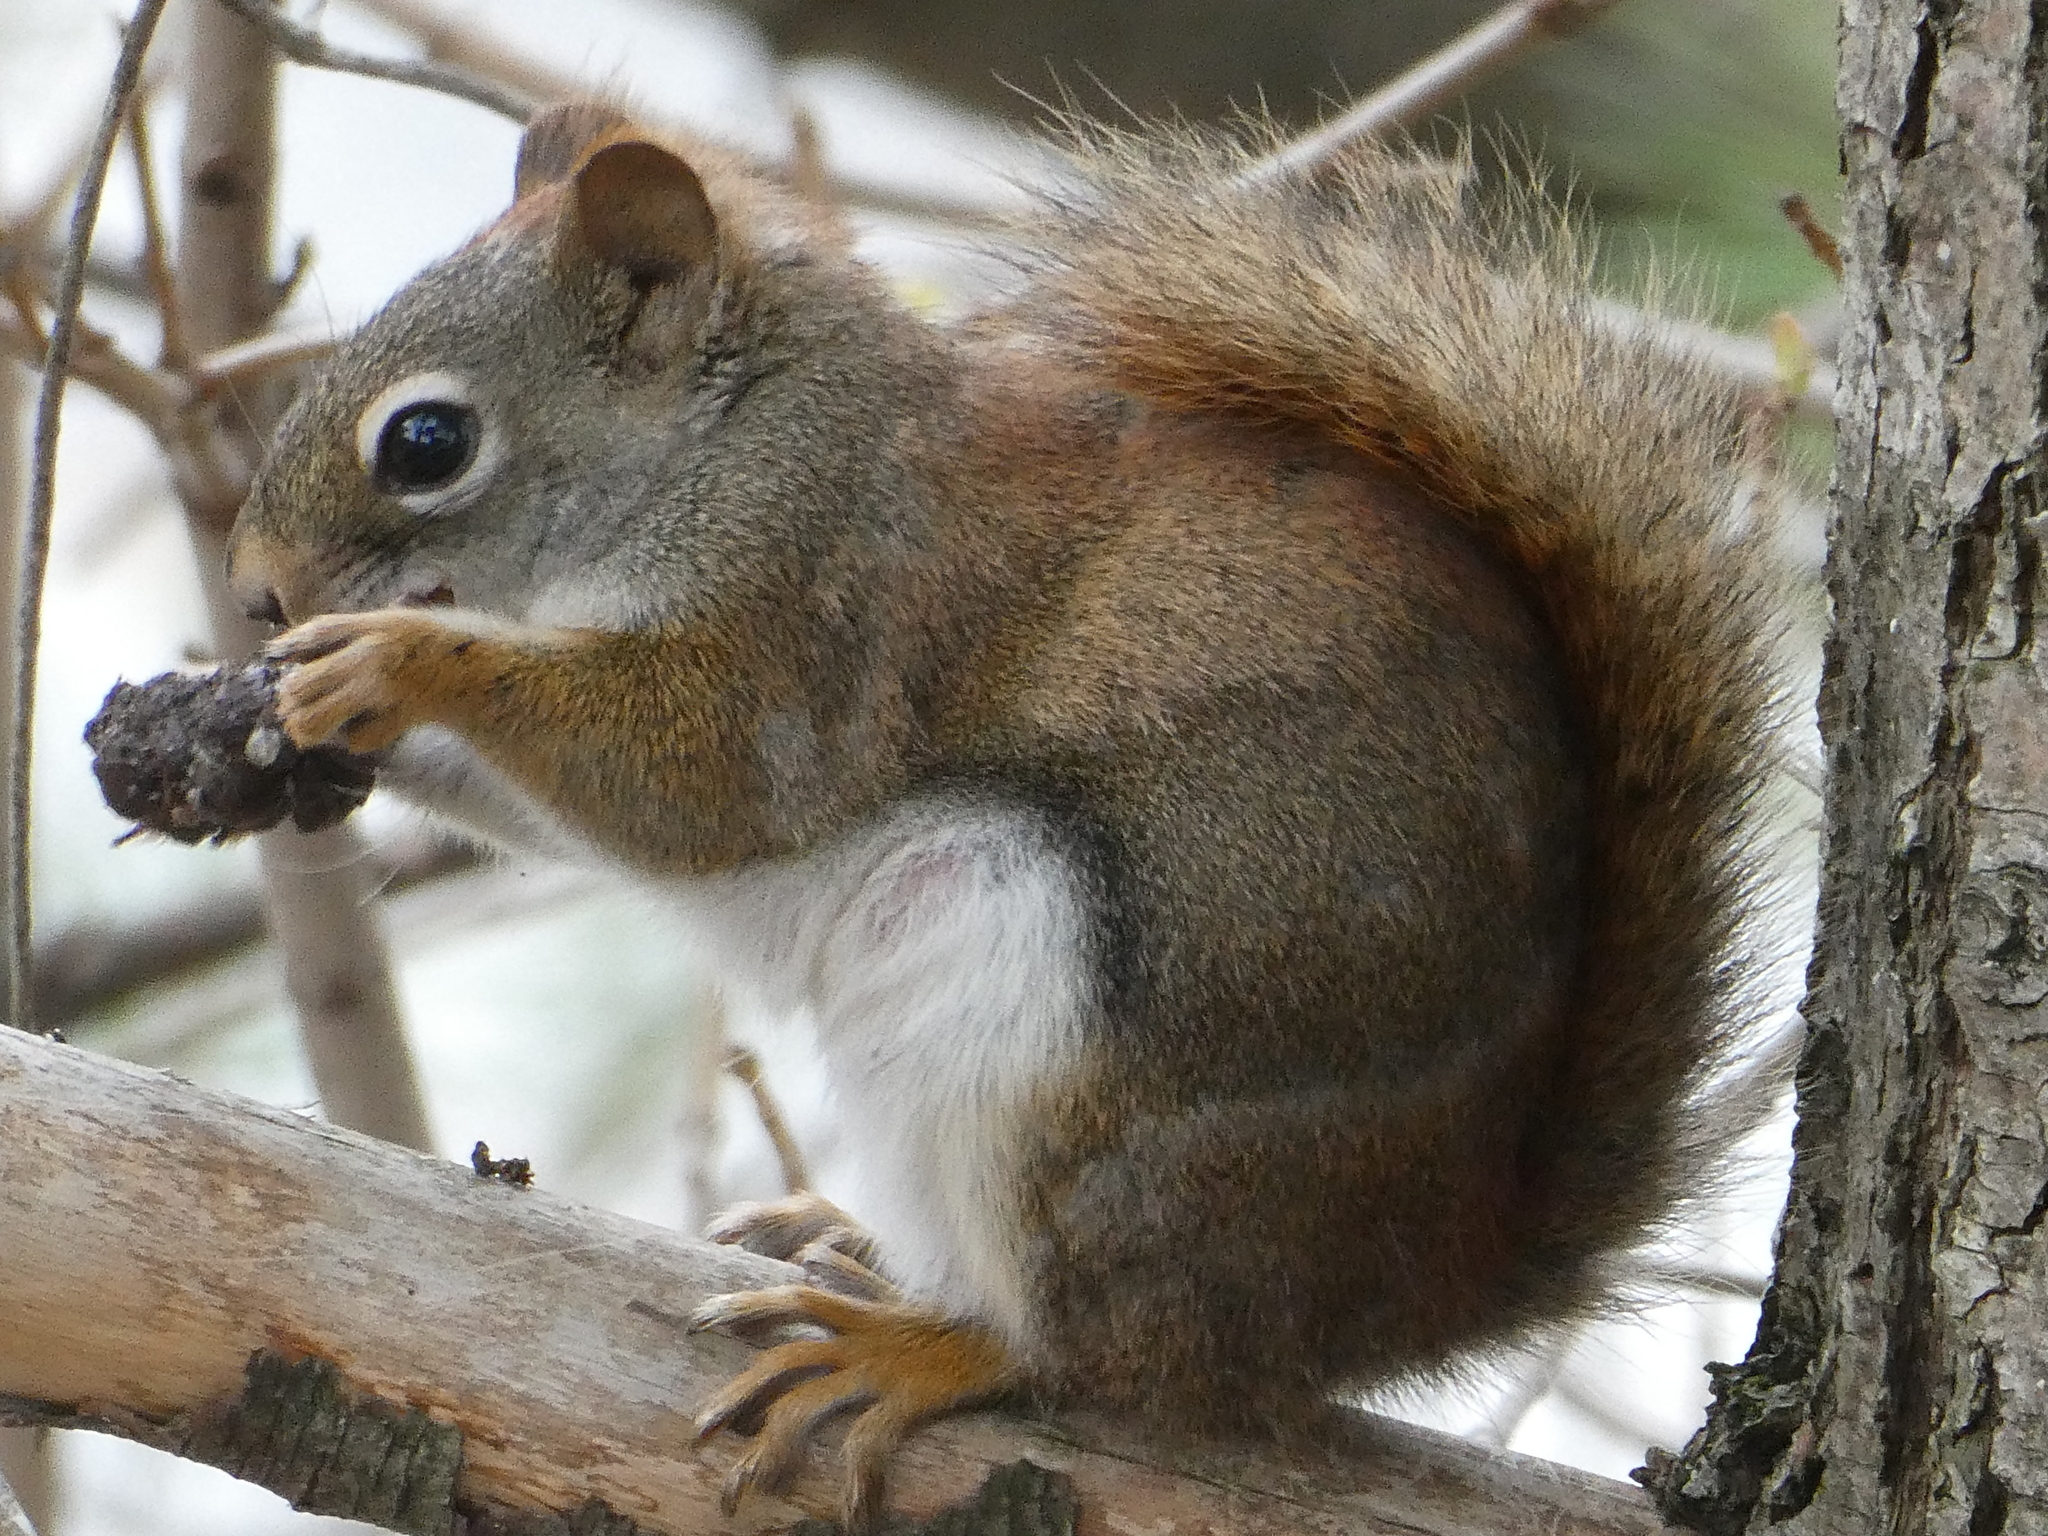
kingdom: Animalia
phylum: Chordata
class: Mammalia
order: Rodentia
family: Sciuridae
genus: Tamiasciurus
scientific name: Tamiasciurus hudsonicus
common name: Red squirrel
